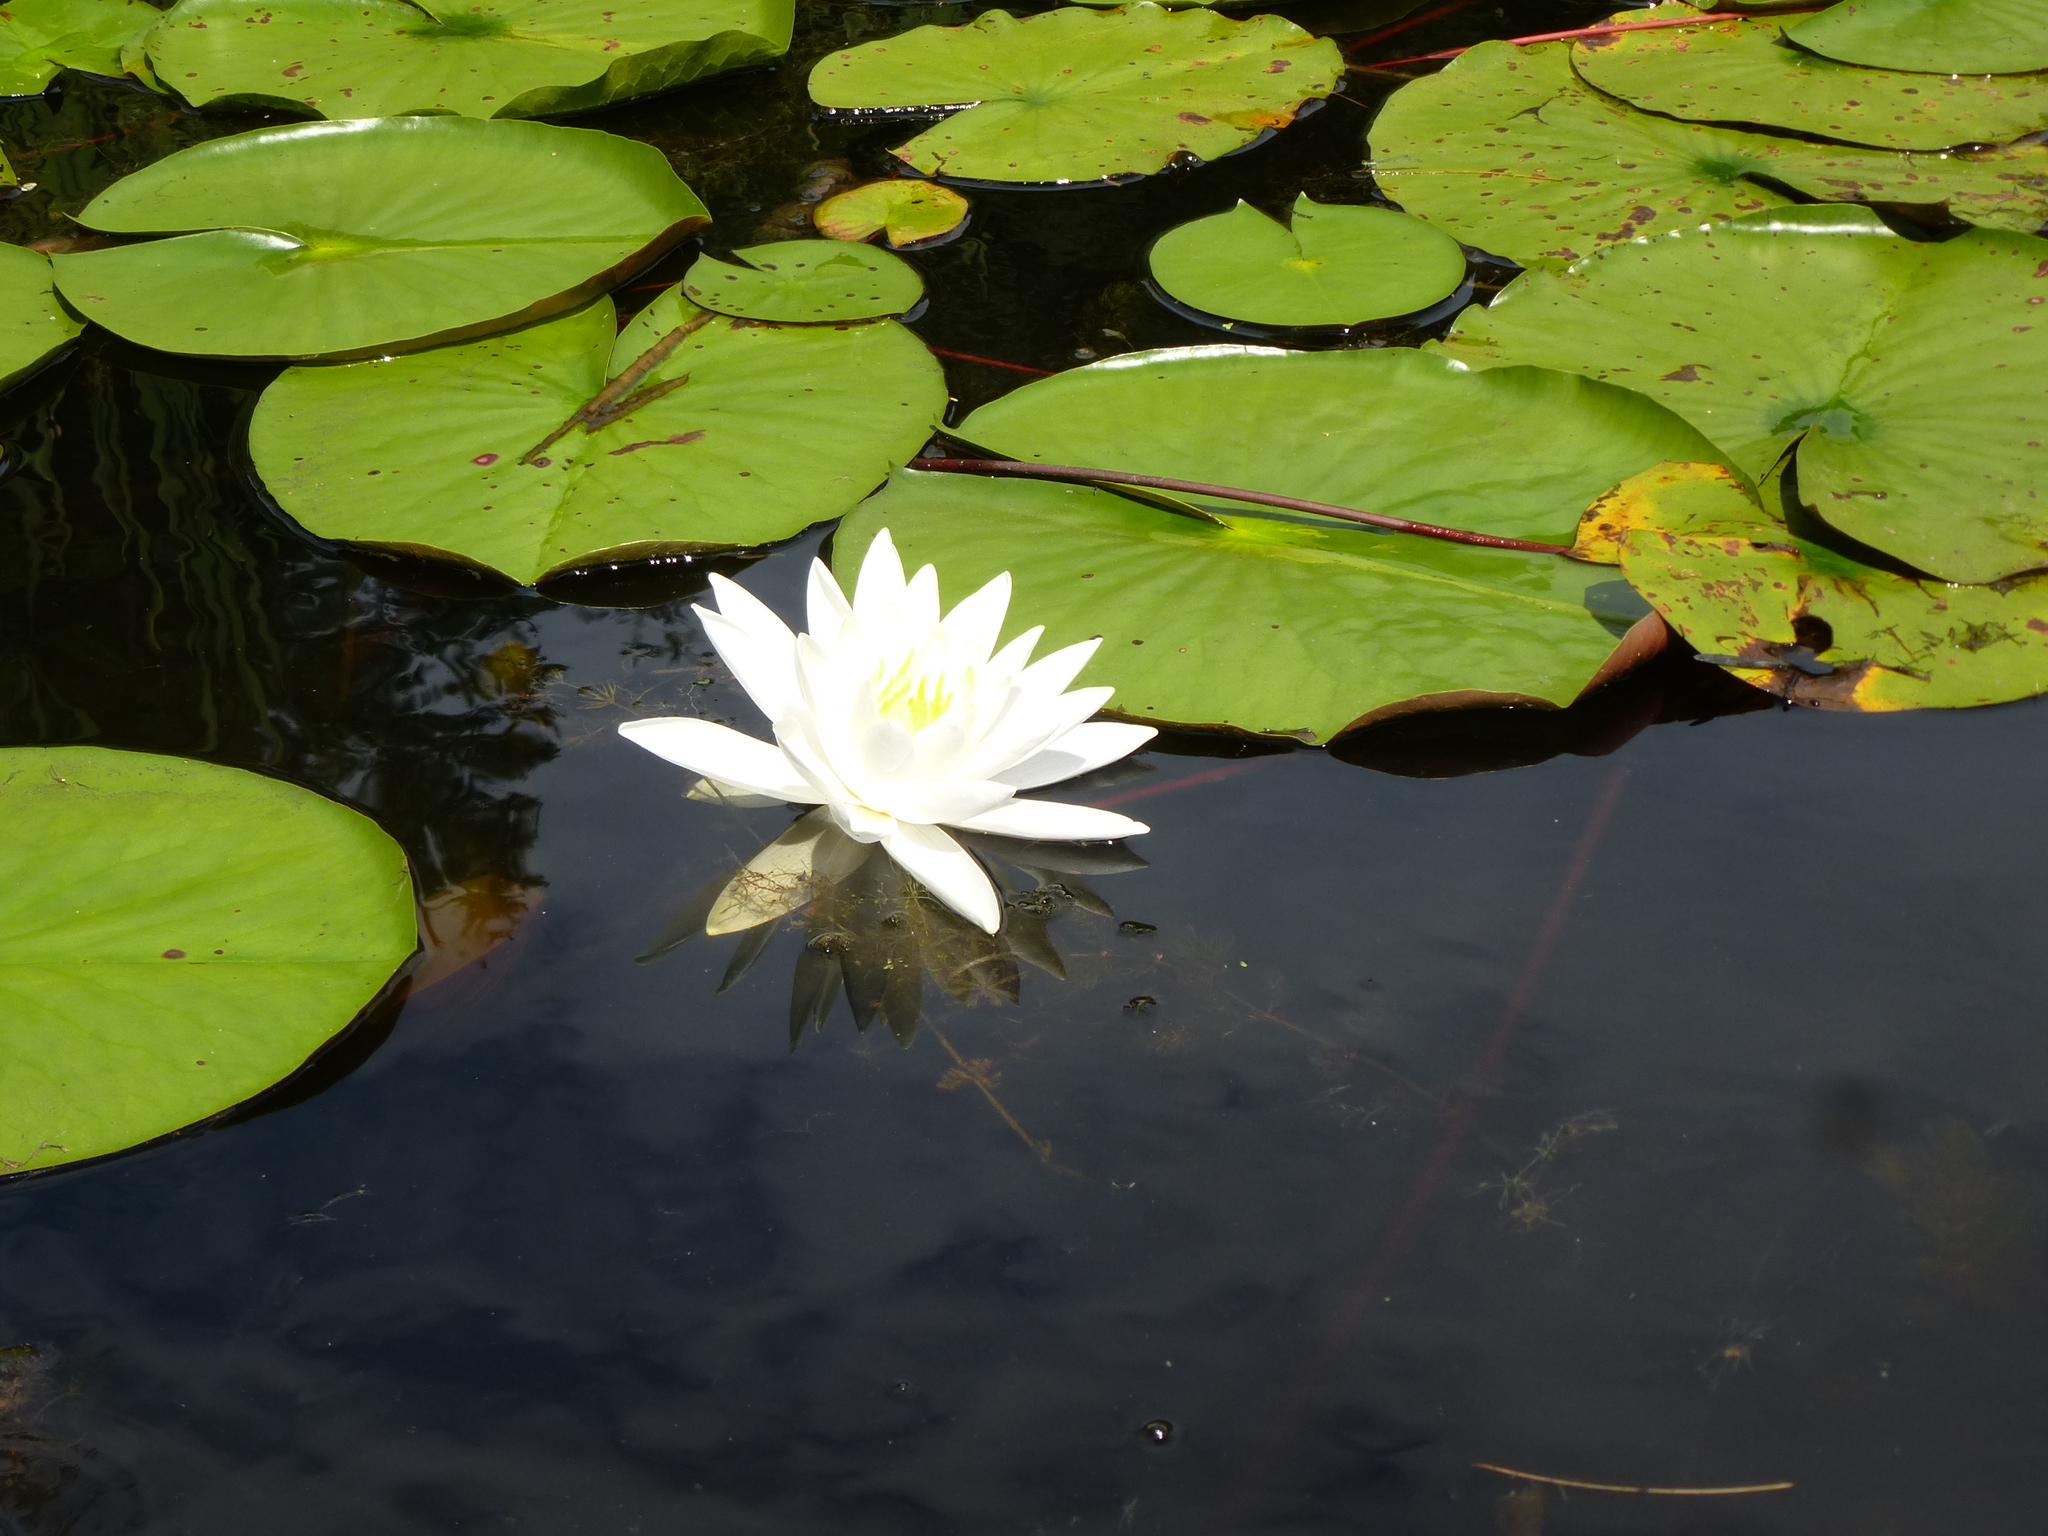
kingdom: Plantae
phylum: Tracheophyta
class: Magnoliopsida
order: Nymphaeales
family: Nymphaeaceae
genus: Nymphaea
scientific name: Nymphaea odorata
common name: Fragrant water-lily
